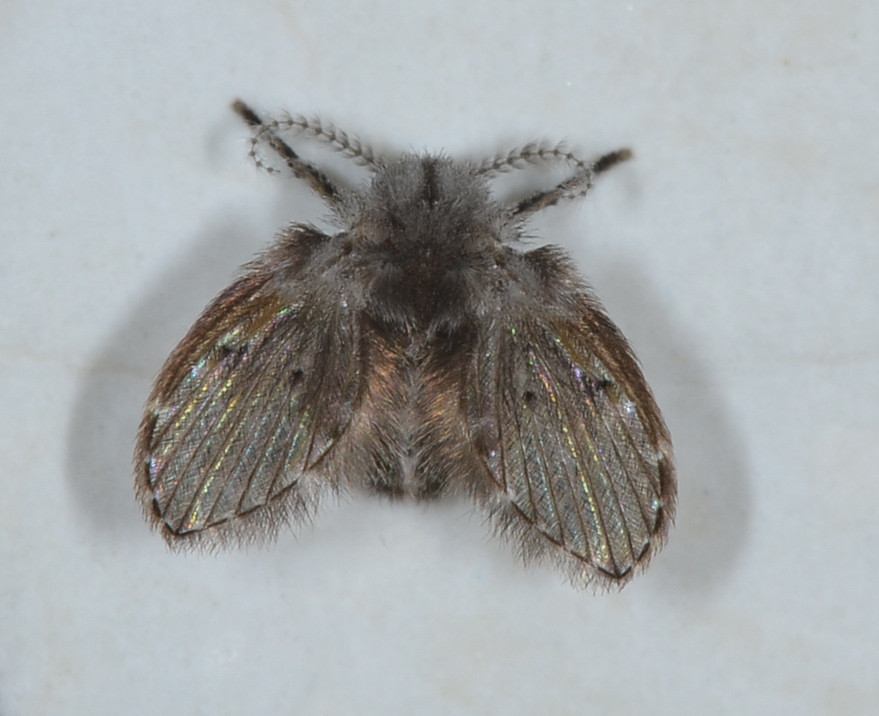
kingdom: Animalia
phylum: Arthropoda
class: Insecta
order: Diptera
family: Psychodidae
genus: Clogmia
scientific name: Clogmia albipunctatus
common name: White-spotted moth fly
